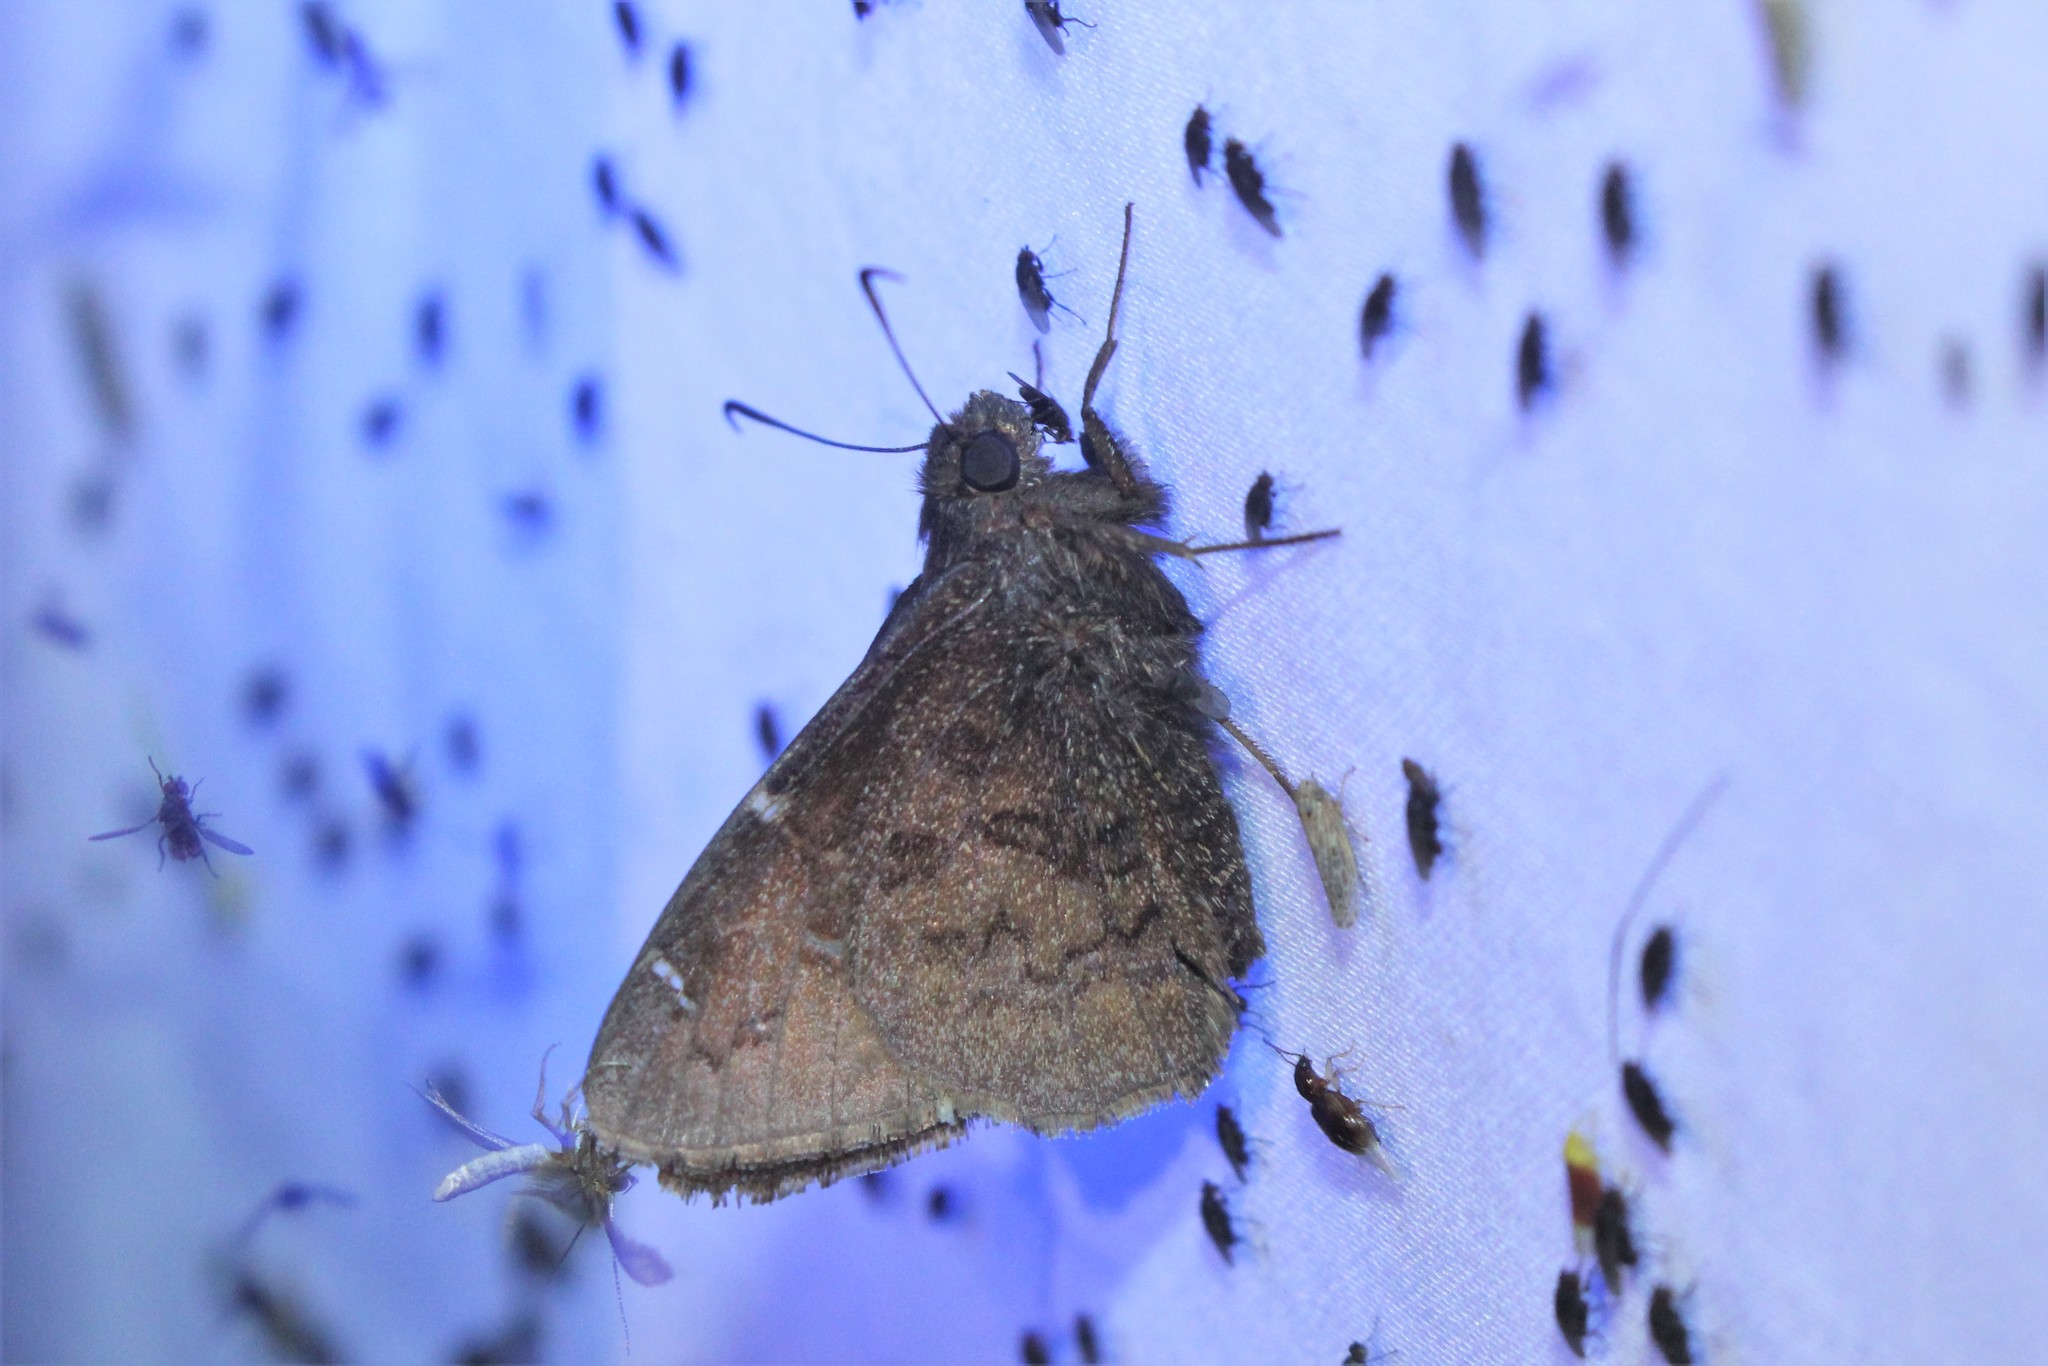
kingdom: Animalia
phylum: Arthropoda
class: Insecta
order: Lepidoptera
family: Hesperiidae
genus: Thorybes
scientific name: Thorybes pylades
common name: Northern cloudywing
